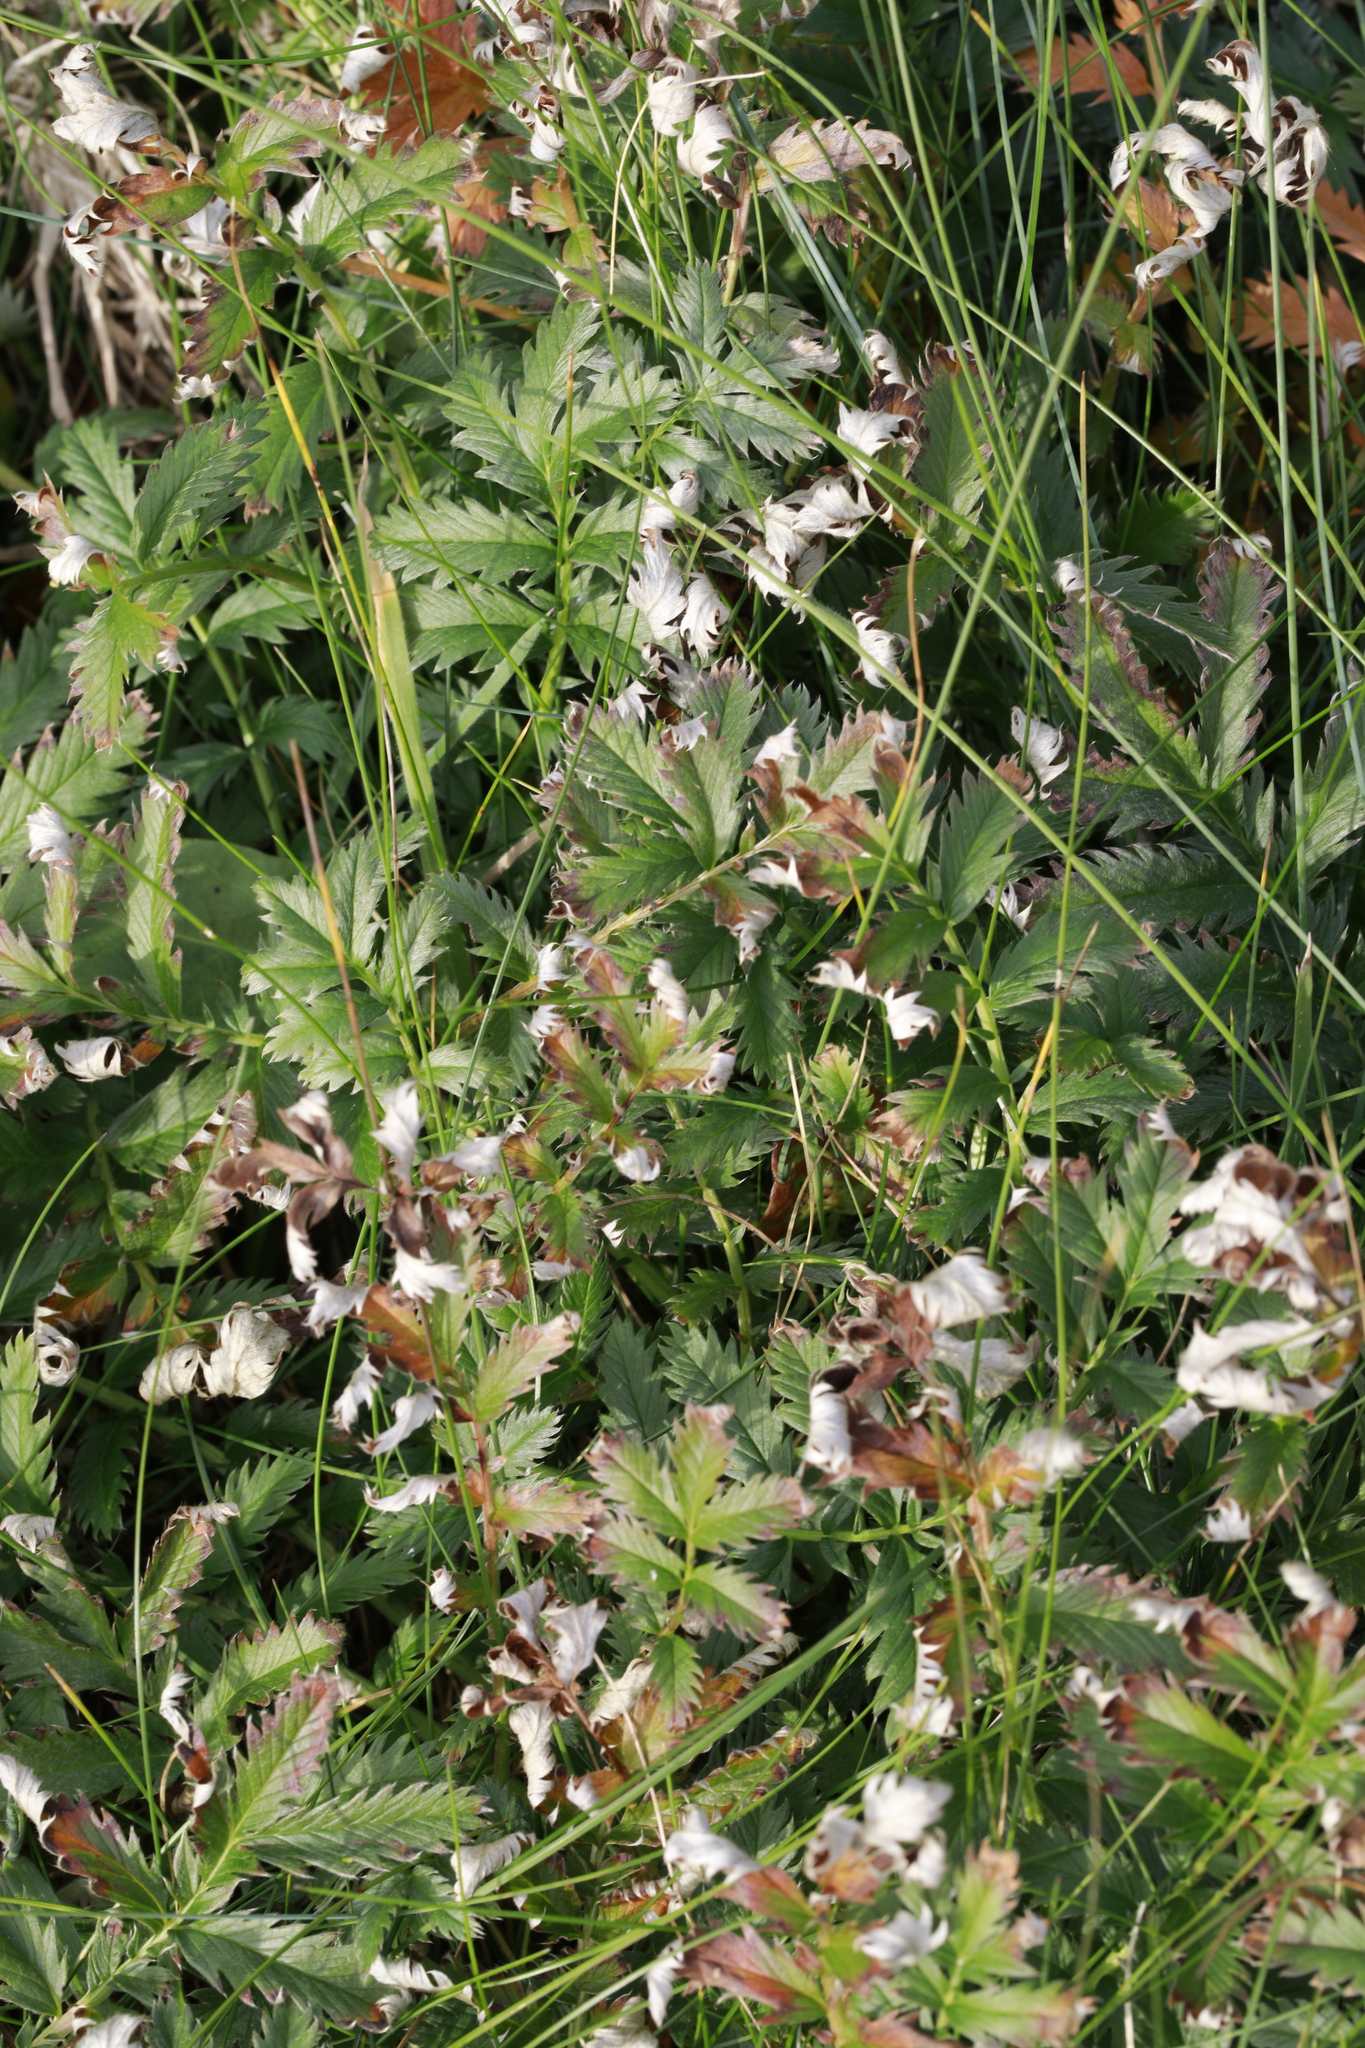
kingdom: Plantae
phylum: Tracheophyta
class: Magnoliopsida
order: Rosales
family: Rosaceae
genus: Argentina
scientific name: Argentina anserina
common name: Common silverweed
